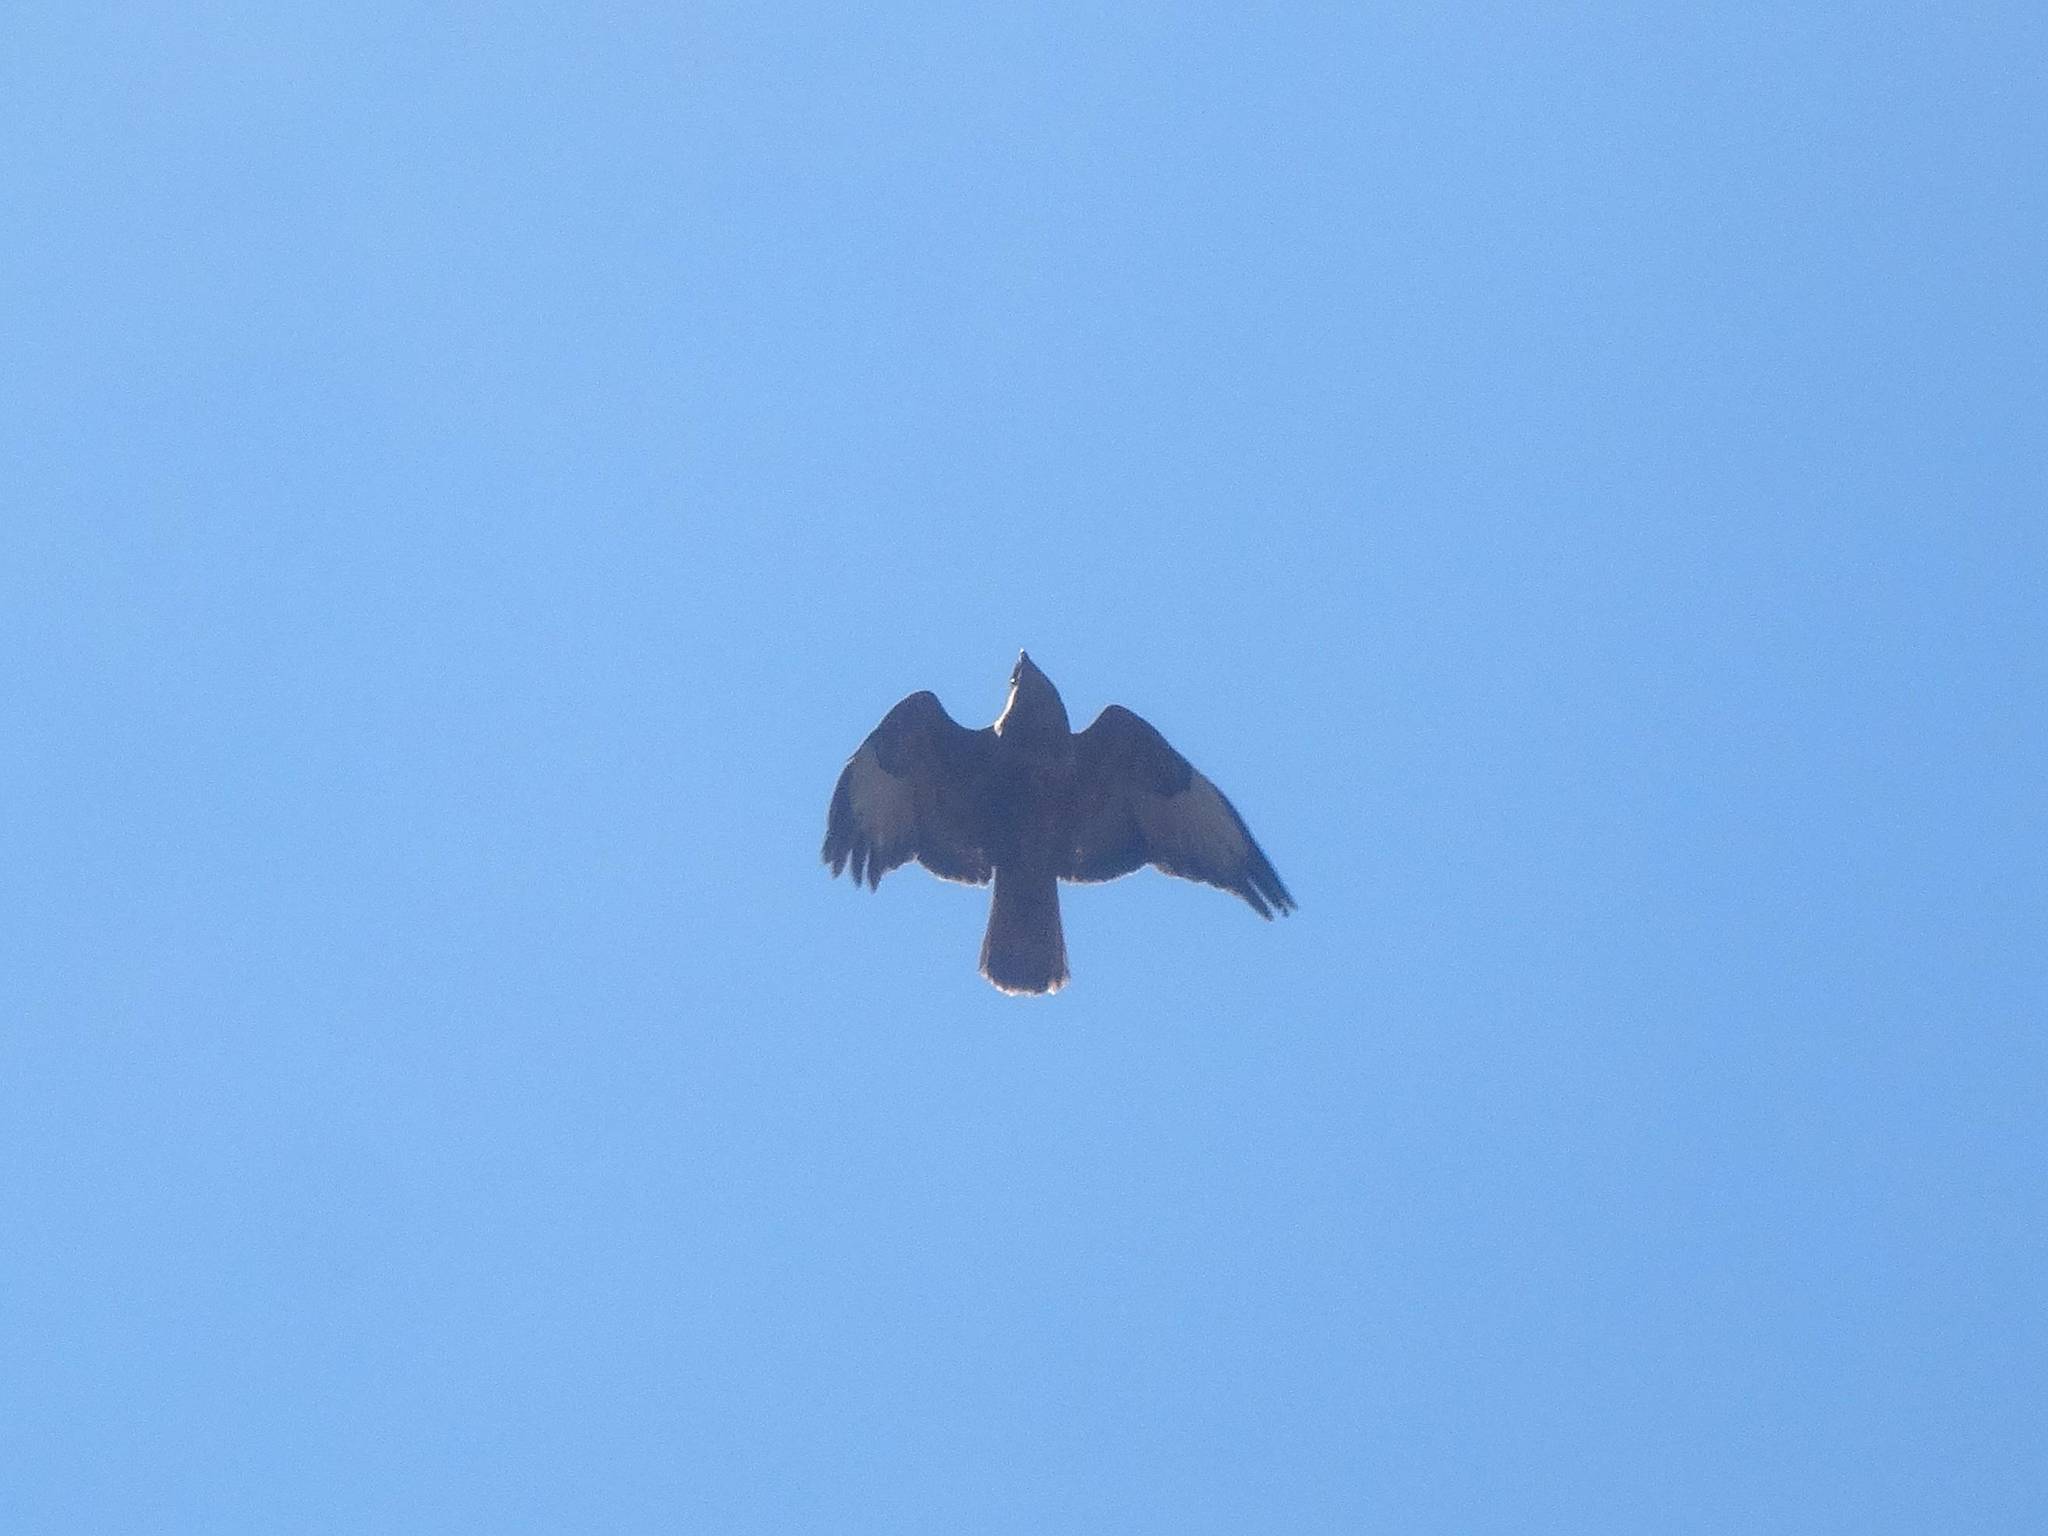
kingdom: Animalia
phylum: Chordata
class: Aves
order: Accipitriformes
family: Accipitridae
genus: Buteo
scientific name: Buteo buteo
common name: Common buzzard
